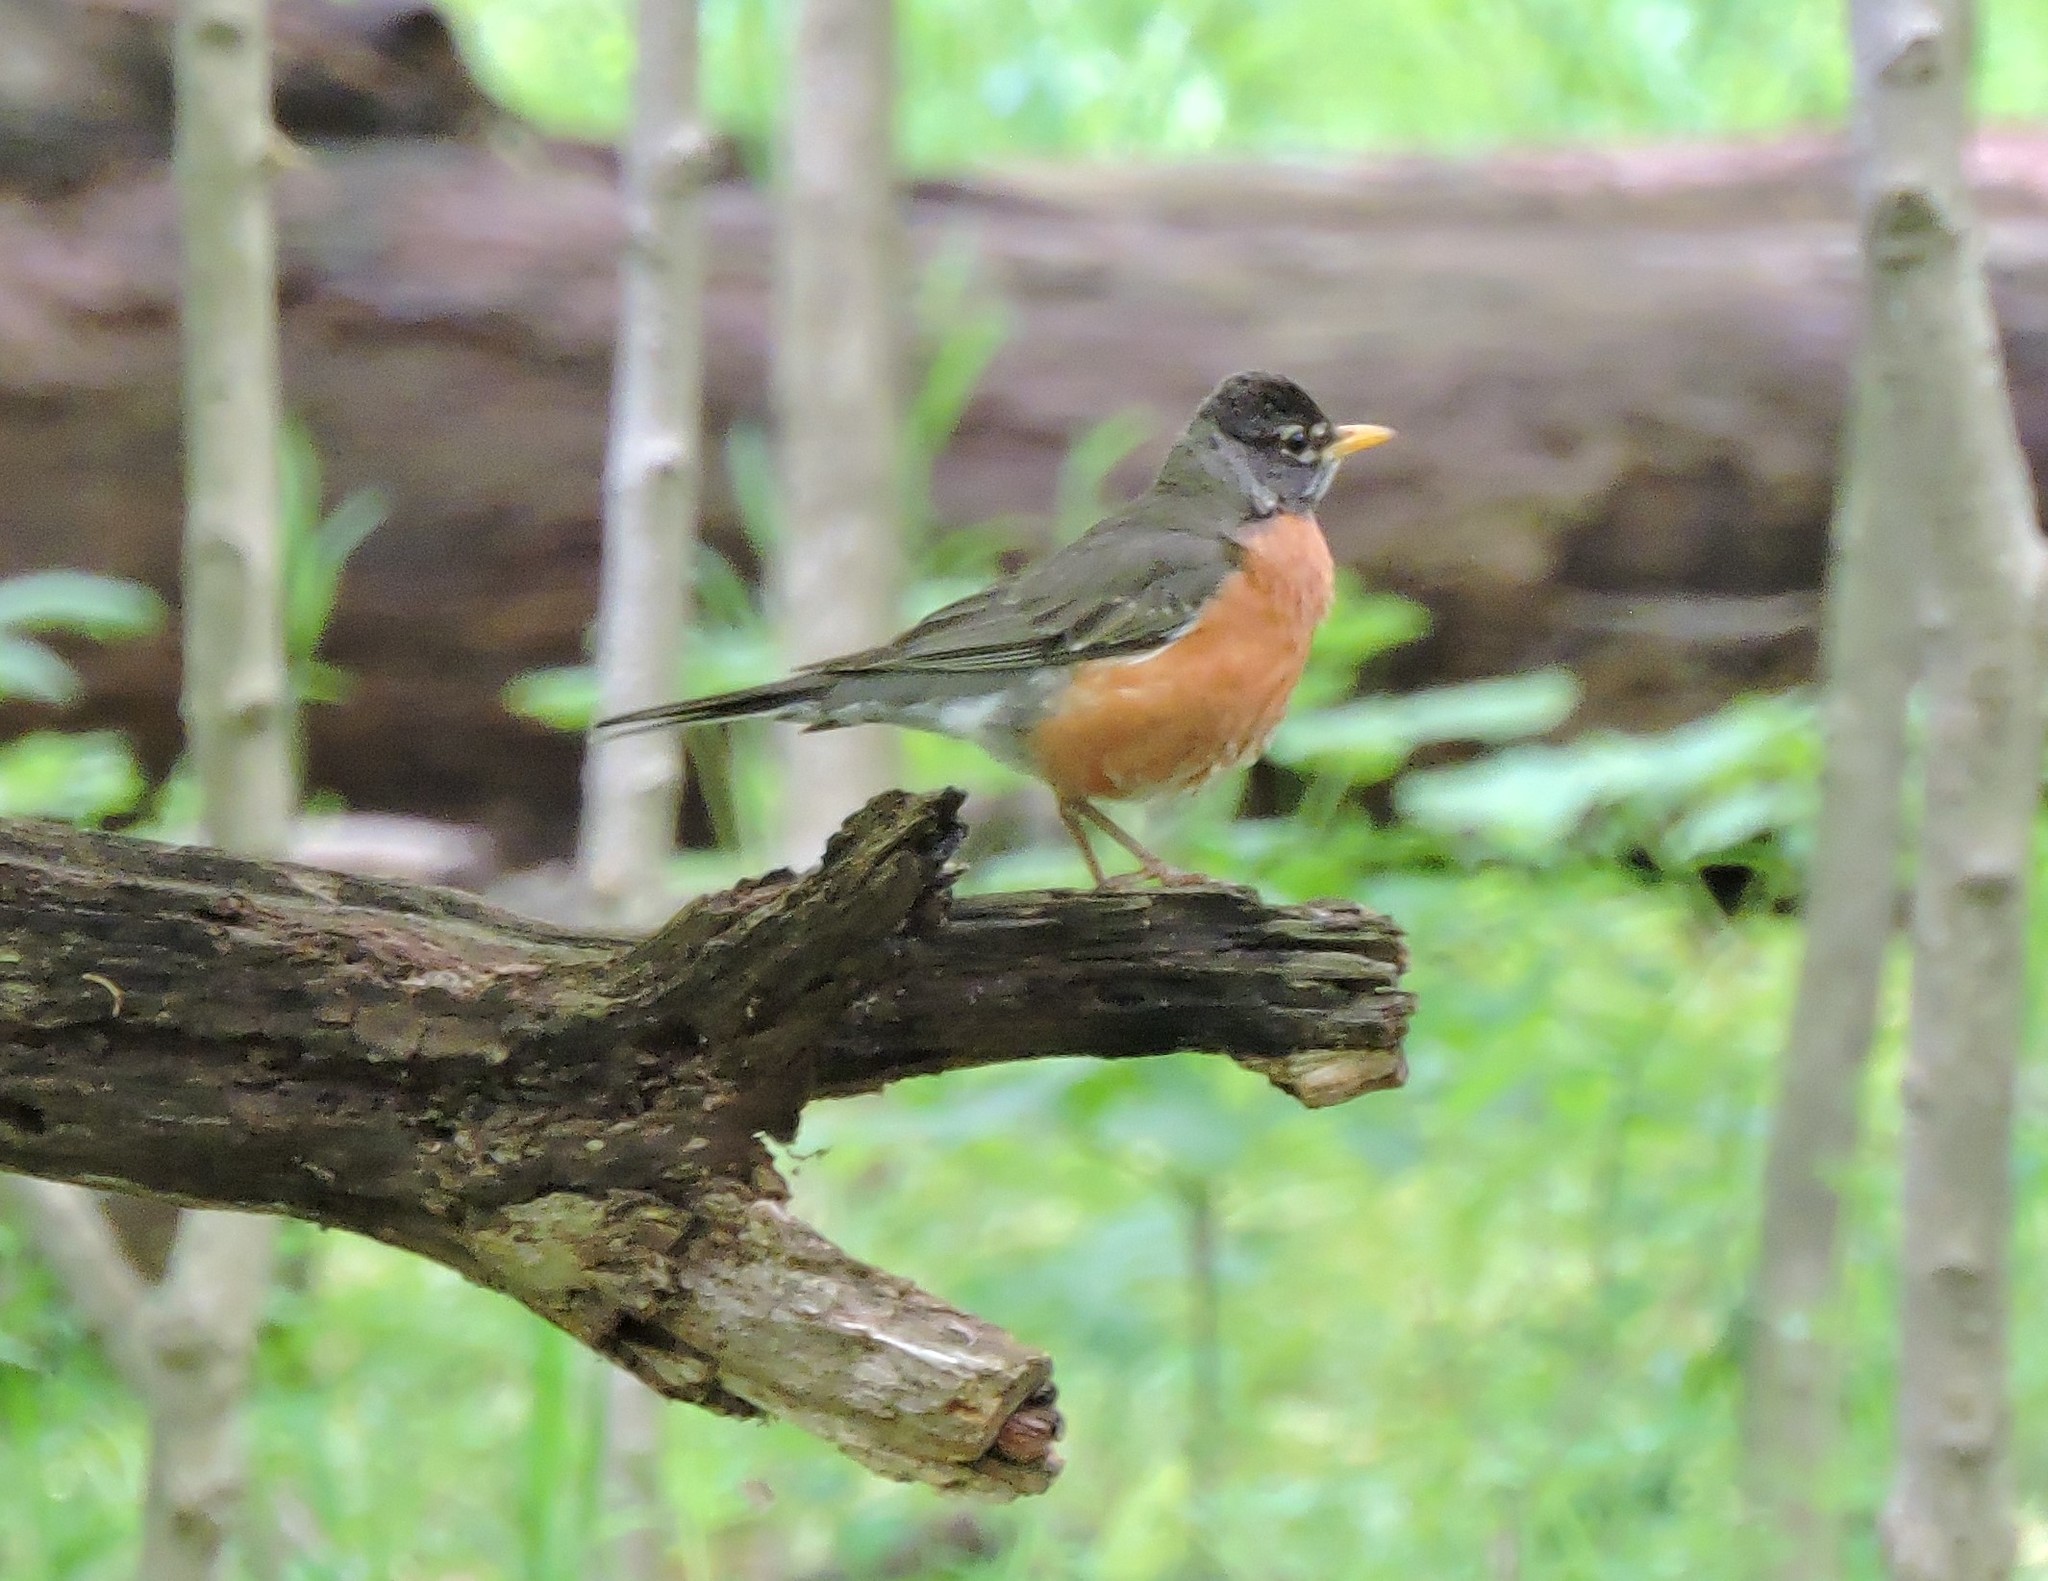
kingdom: Animalia
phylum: Chordata
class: Aves
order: Passeriformes
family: Turdidae
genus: Turdus
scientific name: Turdus migratorius
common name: American robin
